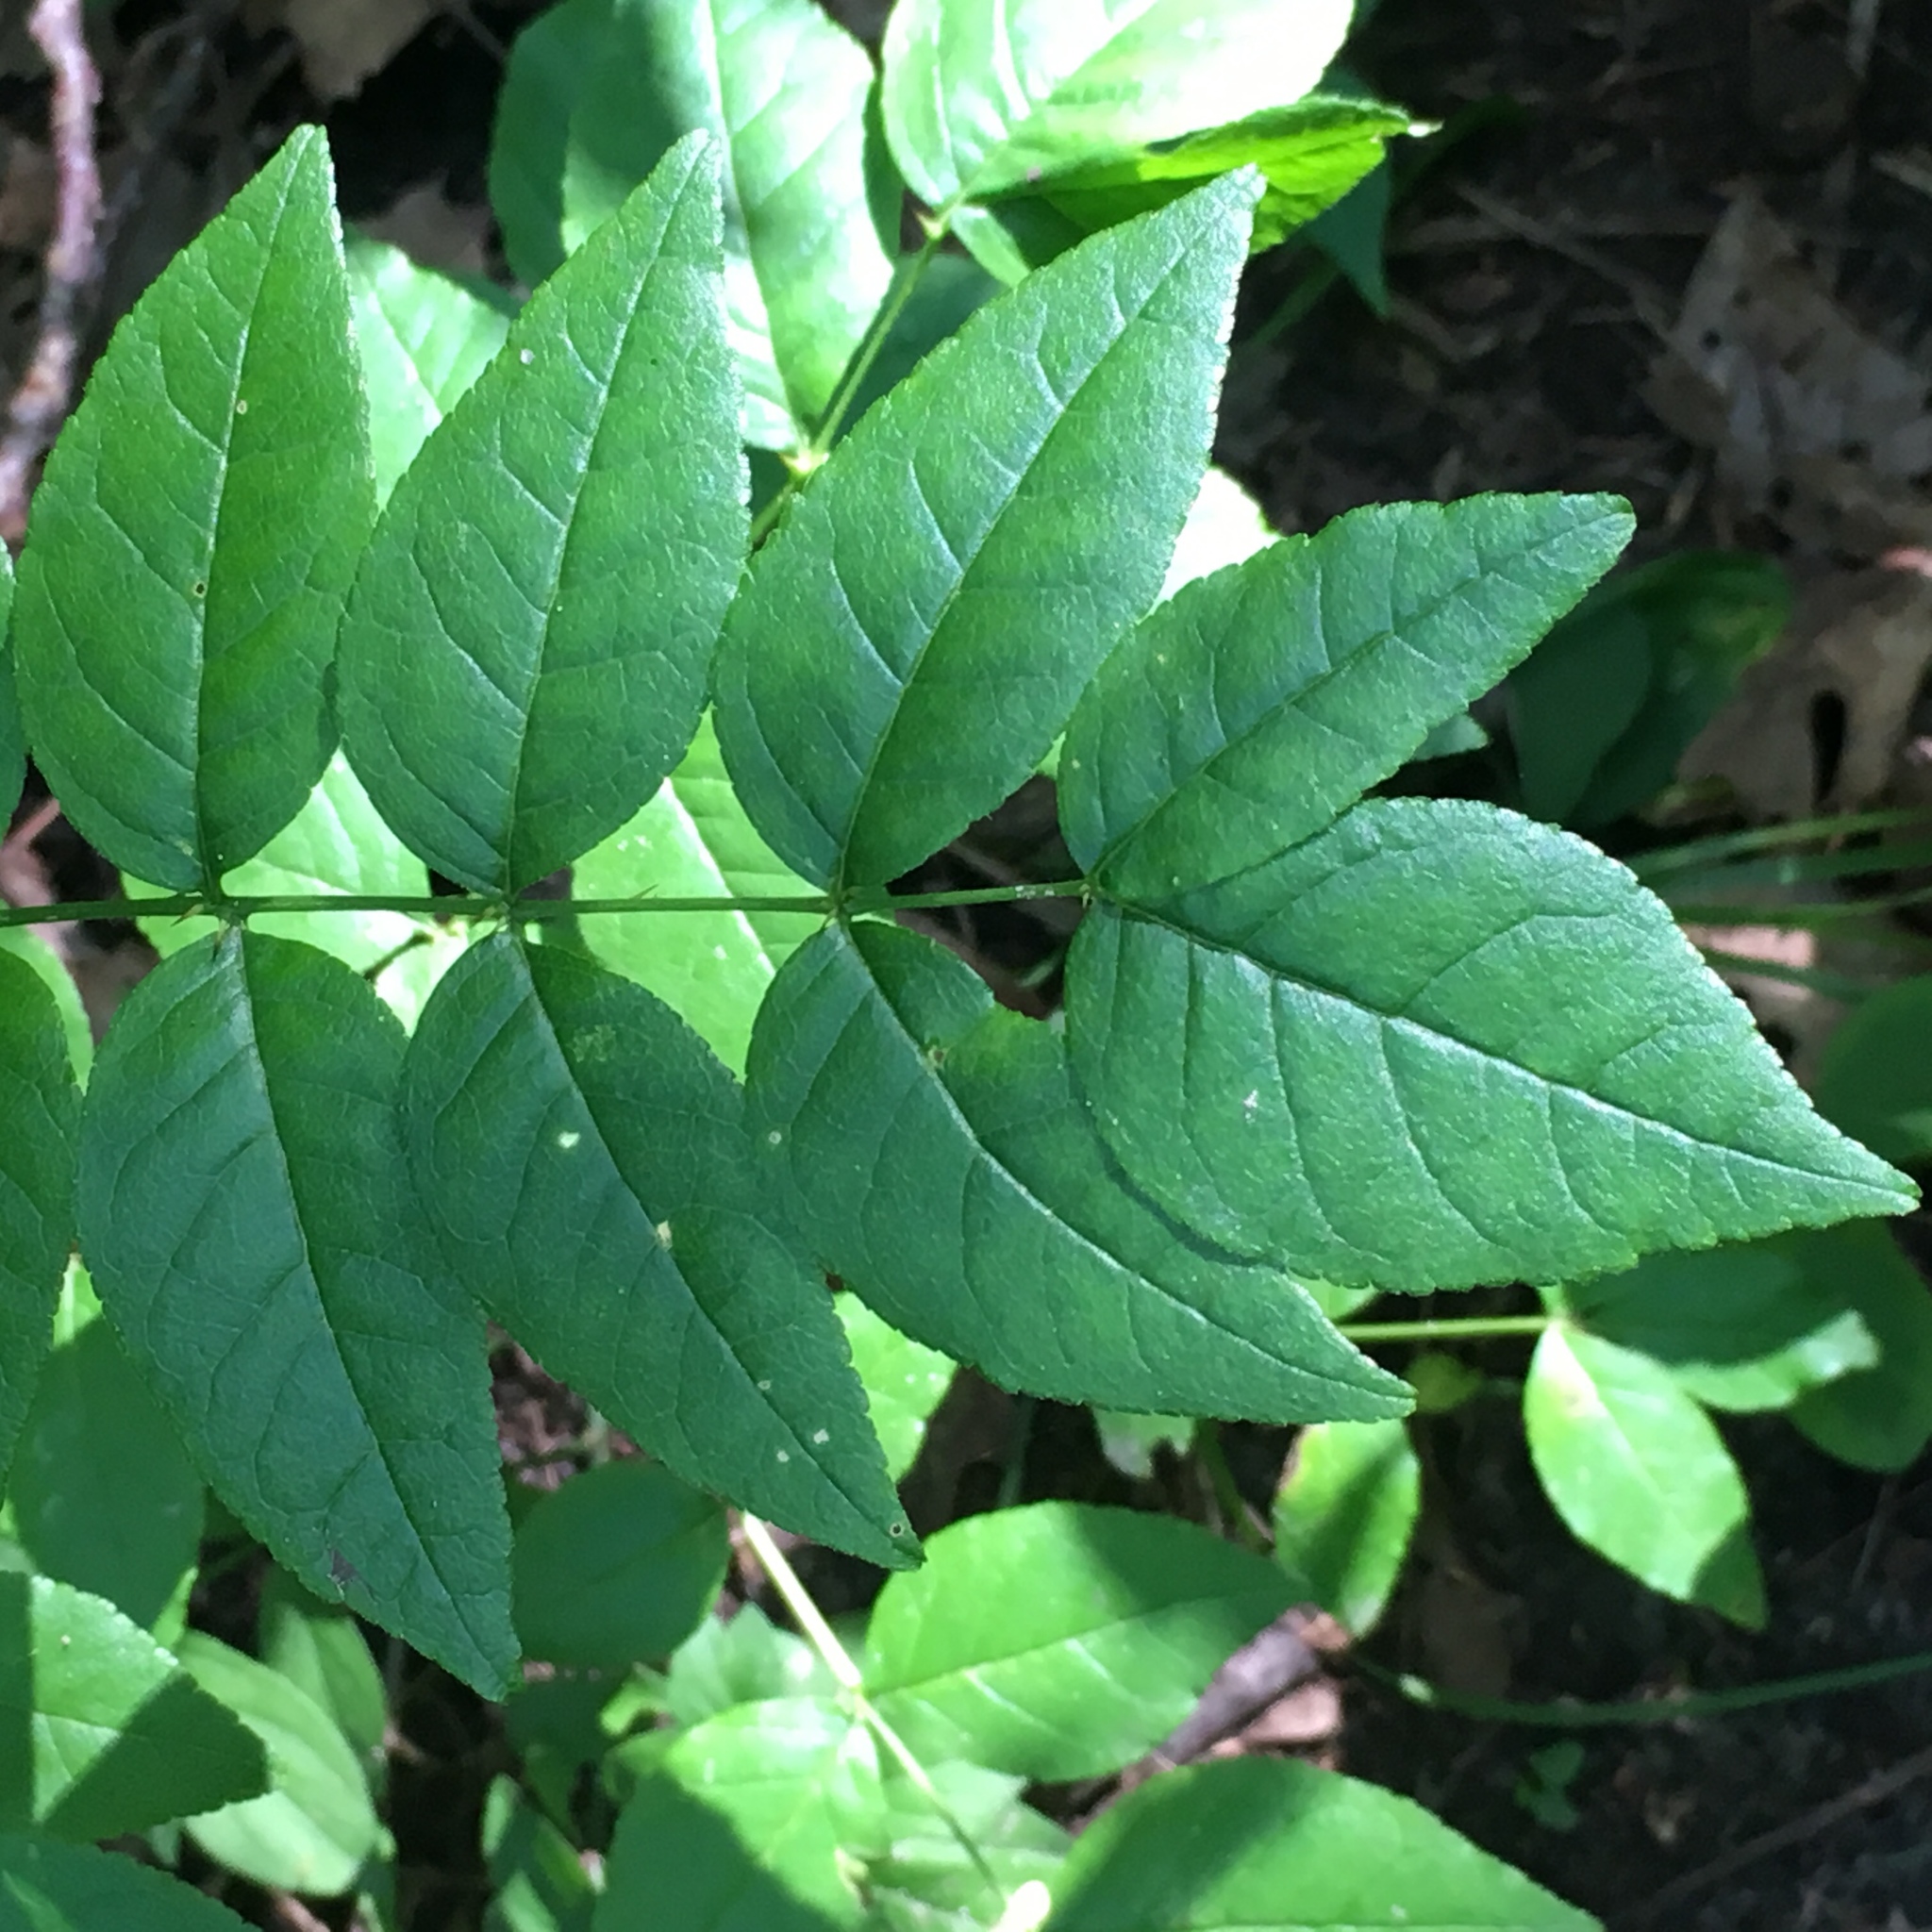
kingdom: Plantae
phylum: Tracheophyta
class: Magnoliopsida
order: Sapindales
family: Rutaceae
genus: Zanthoxylum
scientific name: Zanthoxylum americanum
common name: Northern prickly-ash
